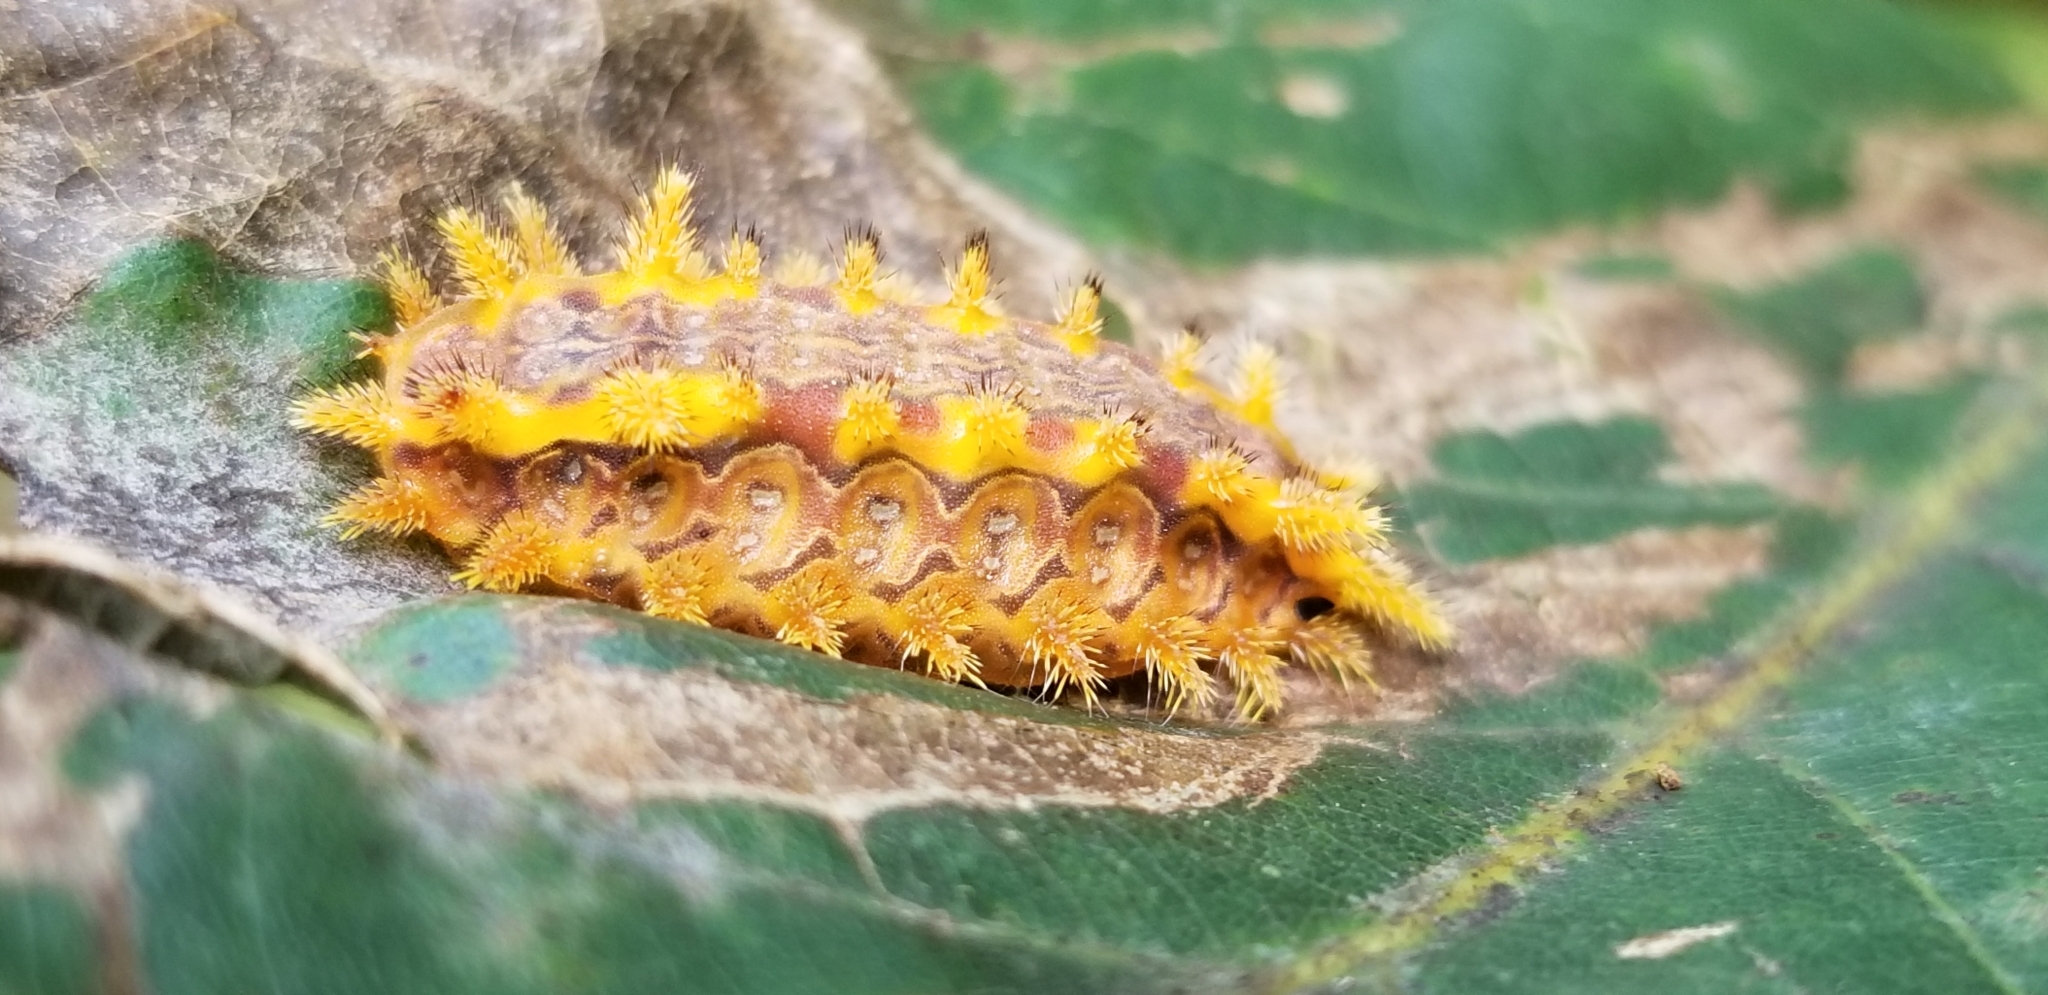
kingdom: Animalia
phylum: Arthropoda
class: Insecta
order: Lepidoptera
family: Limacodidae
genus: Euclea
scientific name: Euclea delphinii
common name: Spiny oak-slug moth
